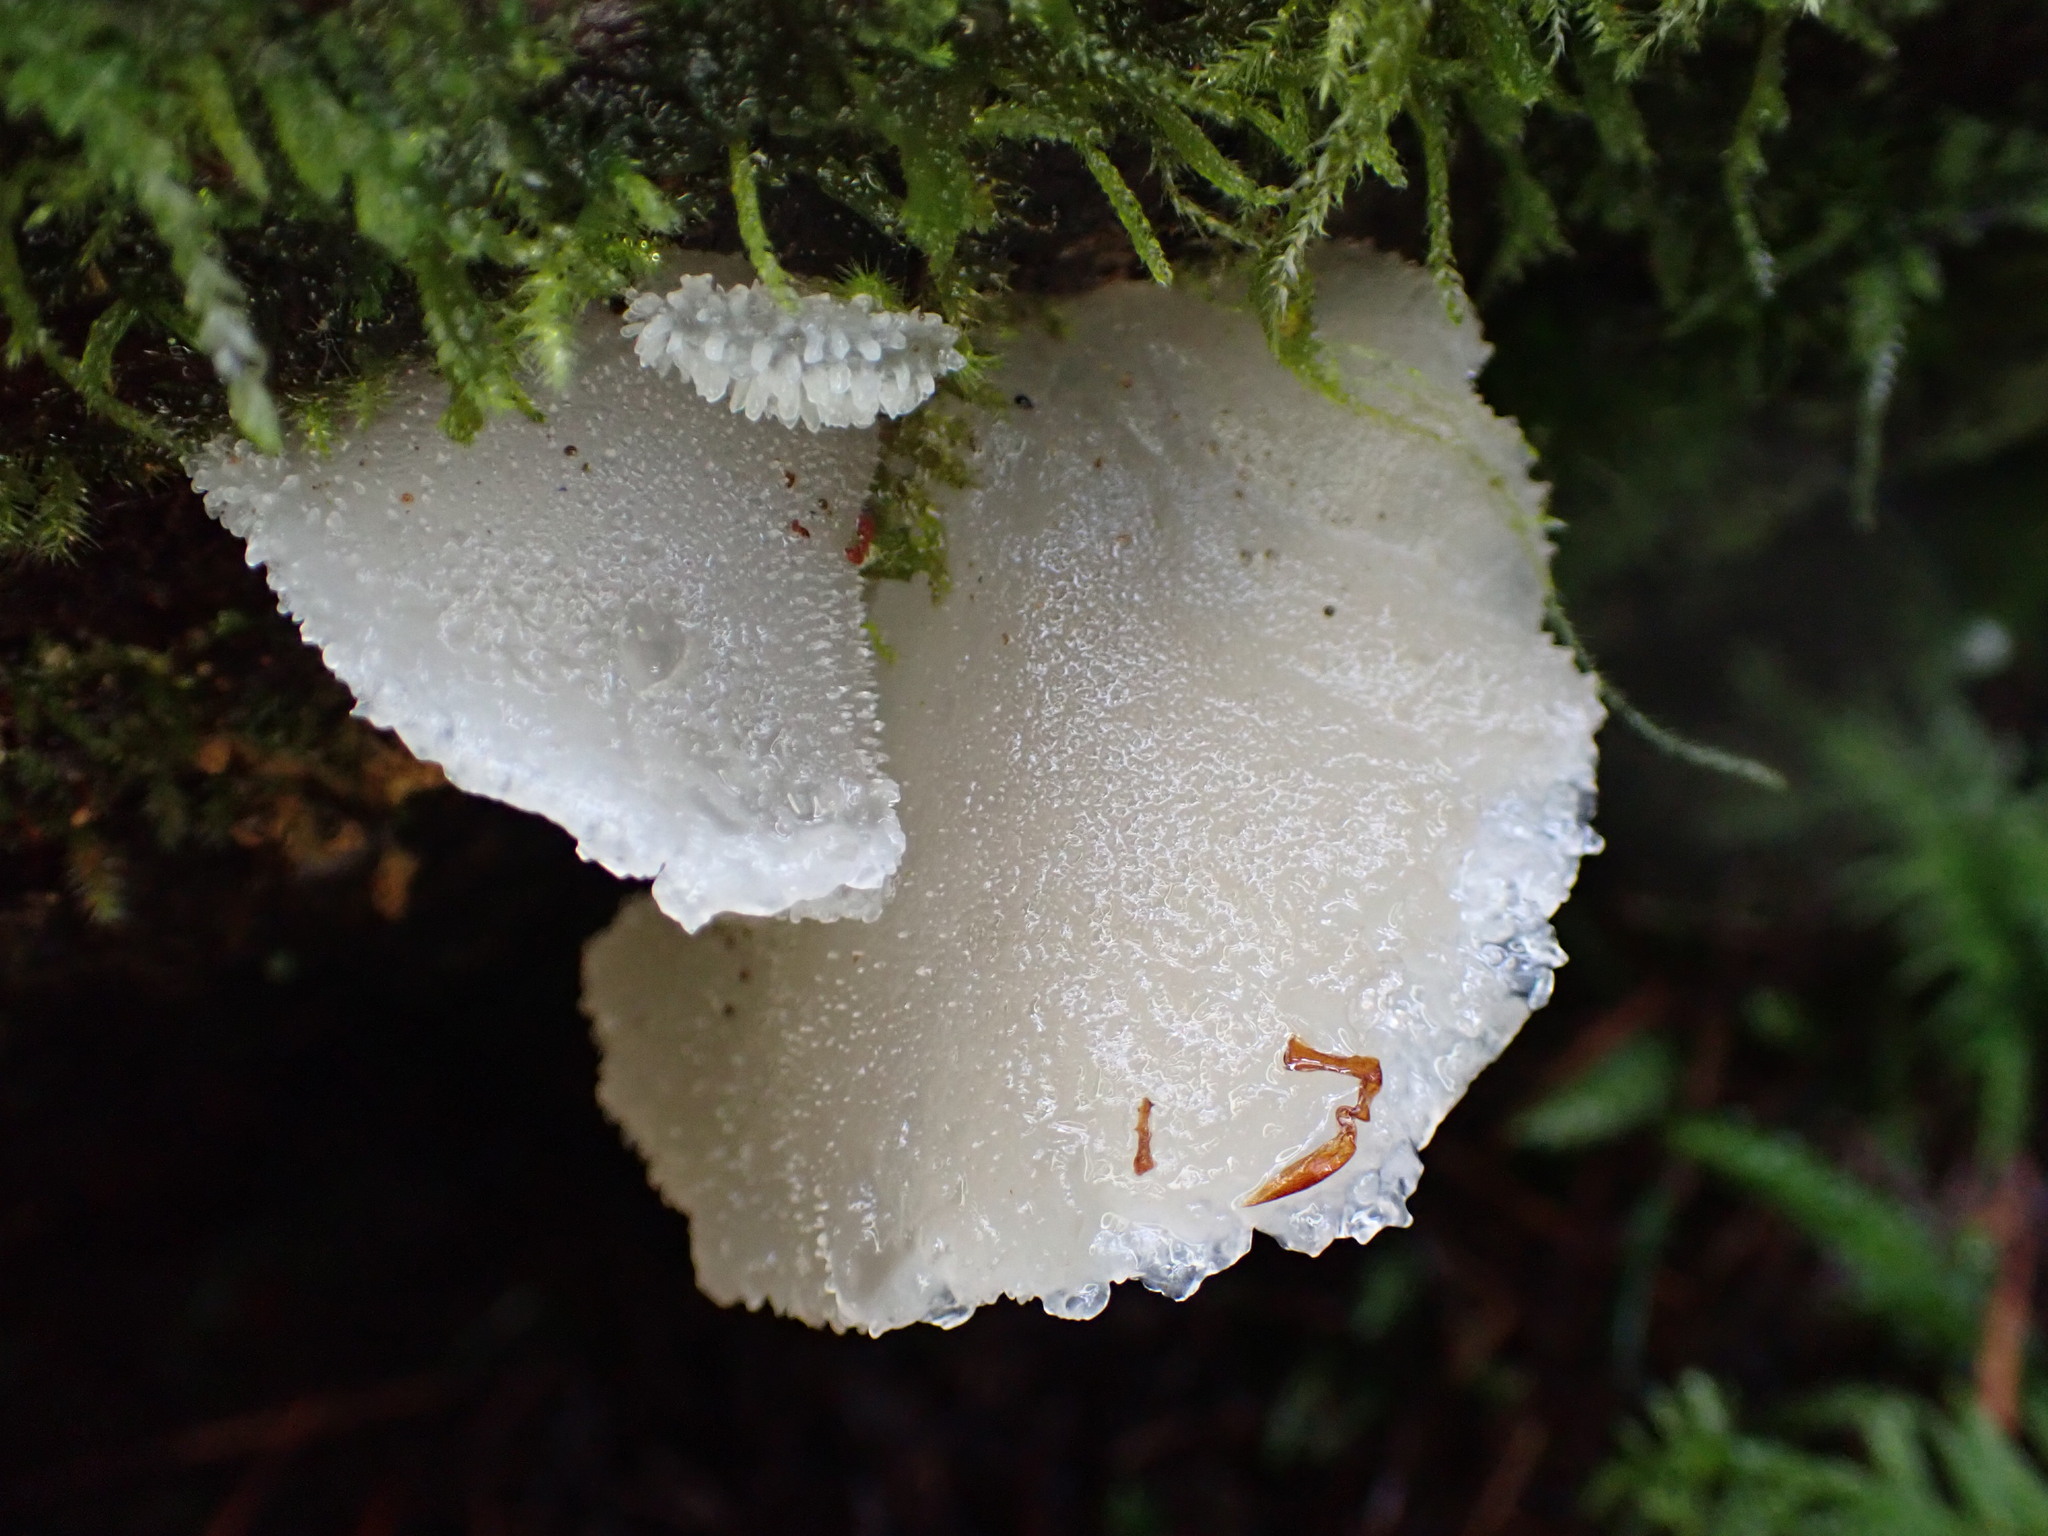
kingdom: Fungi
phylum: Basidiomycota
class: Agaricomycetes
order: Auriculariales
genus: Pseudohydnum
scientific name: Pseudohydnum gelatinosum
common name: Jelly tongue
